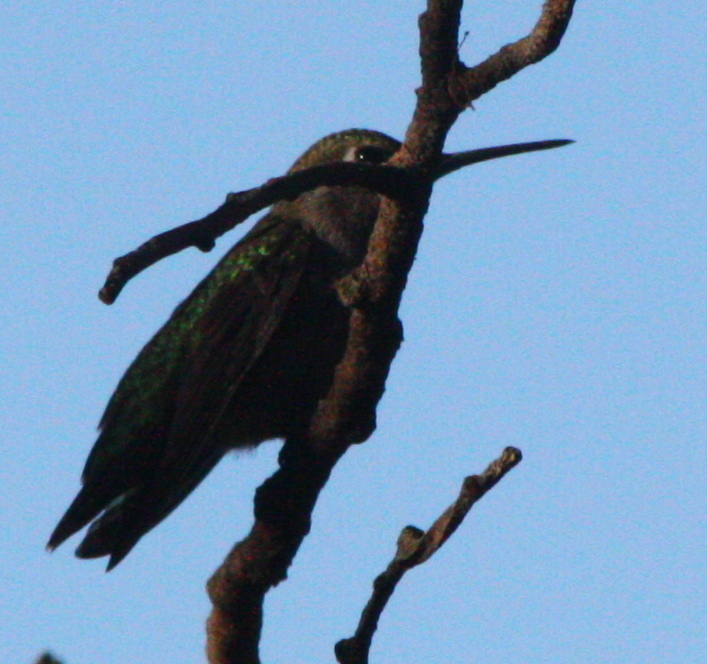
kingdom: Animalia
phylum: Chordata
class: Aves
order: Apodiformes
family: Trochilidae
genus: Calypte
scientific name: Calypte anna
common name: Anna's hummingbird
